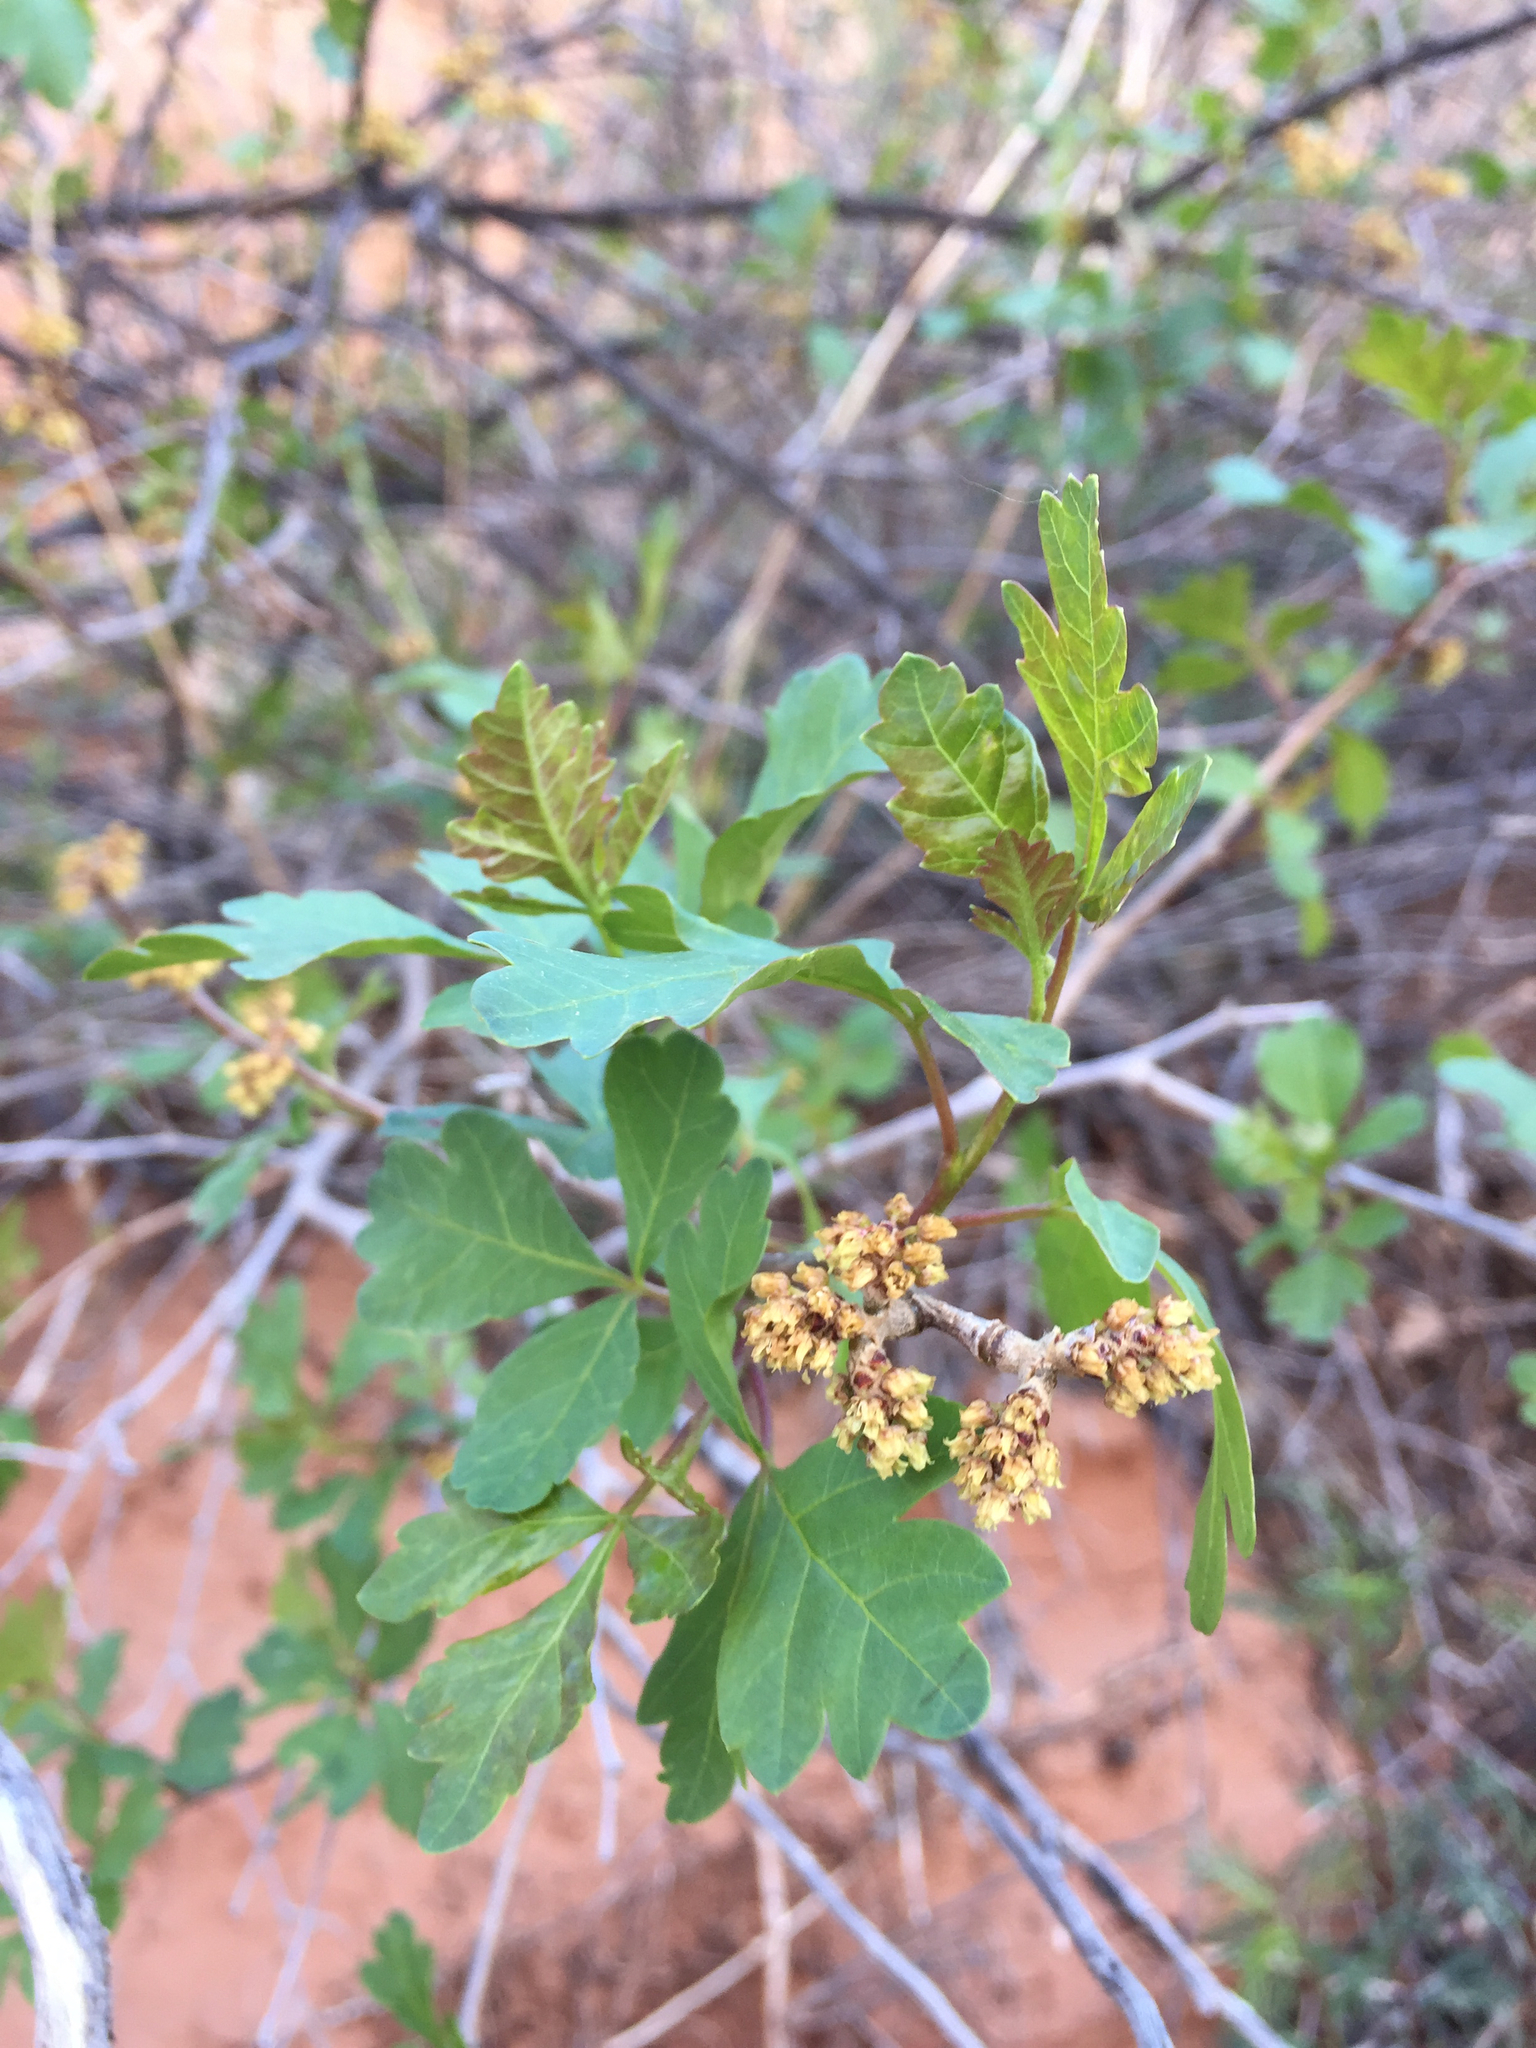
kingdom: Plantae
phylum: Tracheophyta
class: Magnoliopsida
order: Sapindales
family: Anacardiaceae
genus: Rhus
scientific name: Rhus aromatica
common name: Aromatic sumac
